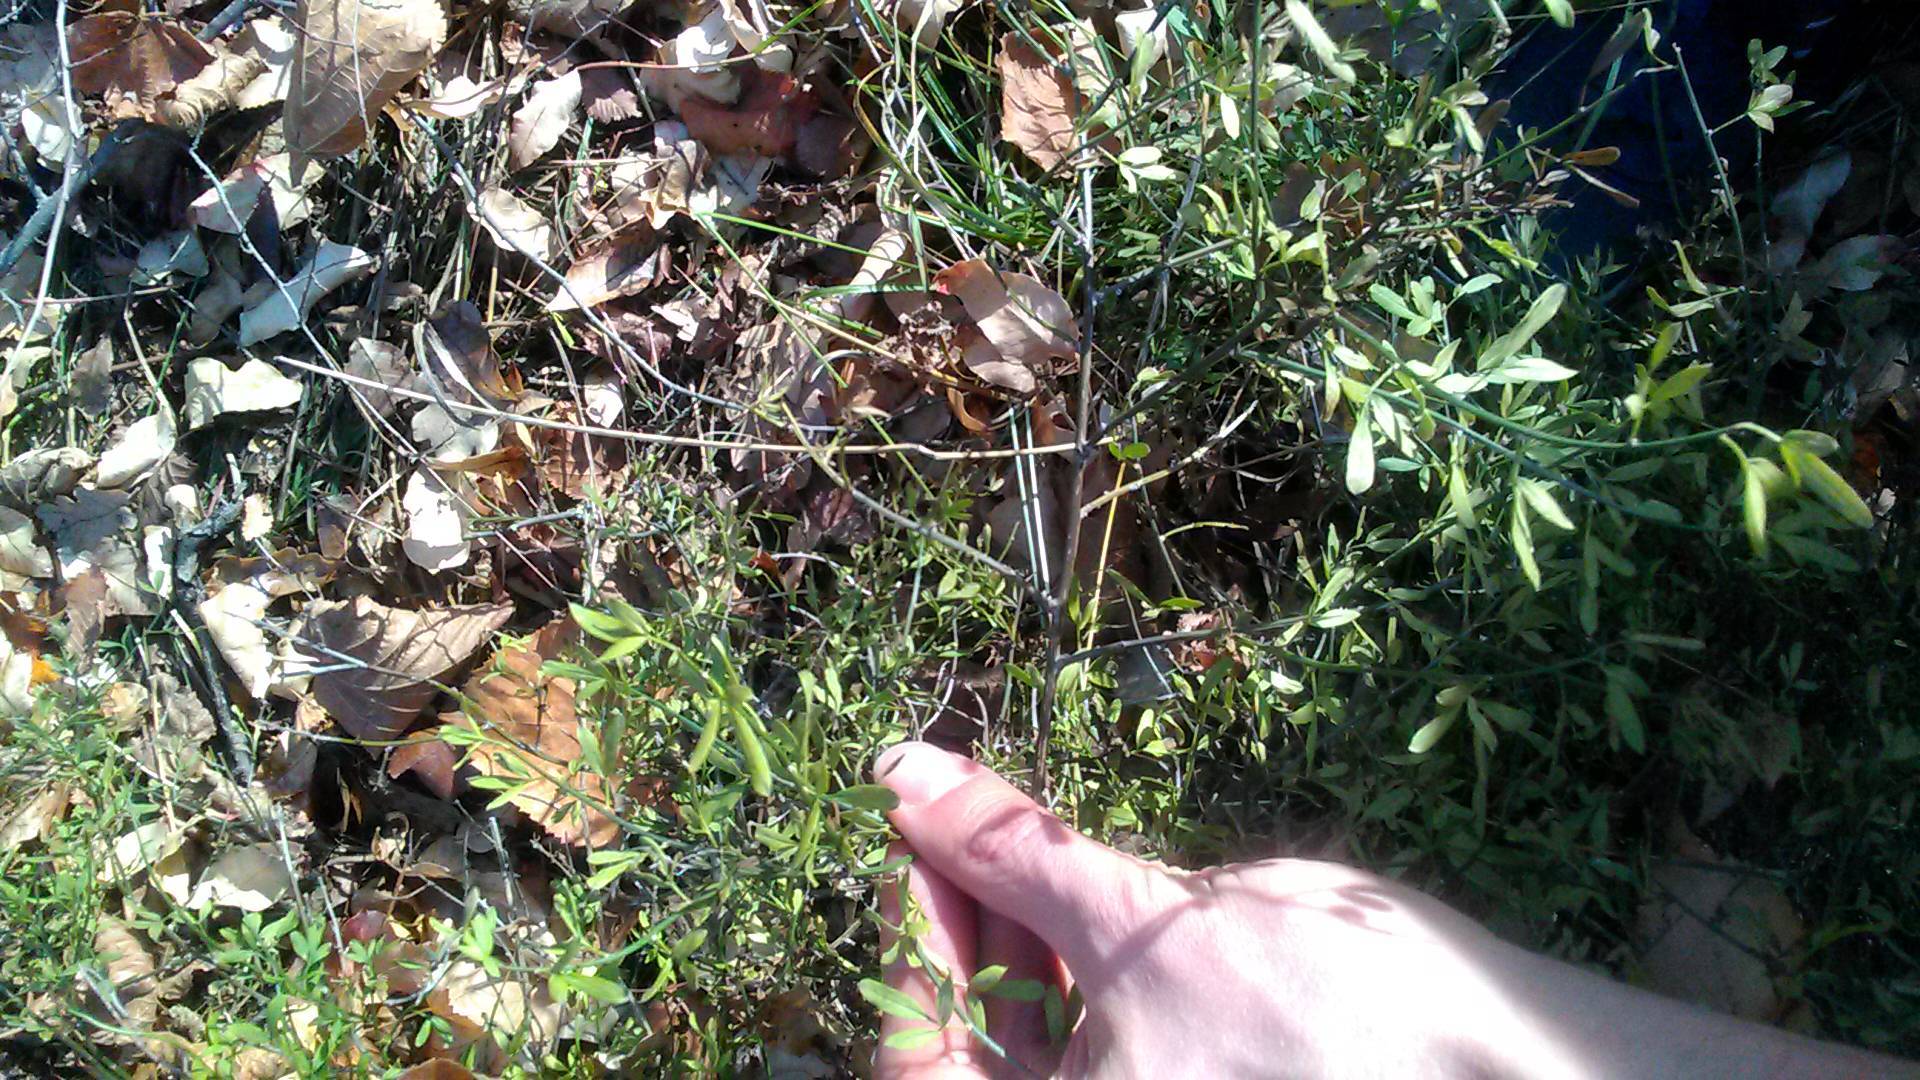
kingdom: Plantae
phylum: Tracheophyta
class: Magnoliopsida
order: Lamiales
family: Oleaceae
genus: Chrysojasminum
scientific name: Chrysojasminum fruticans
